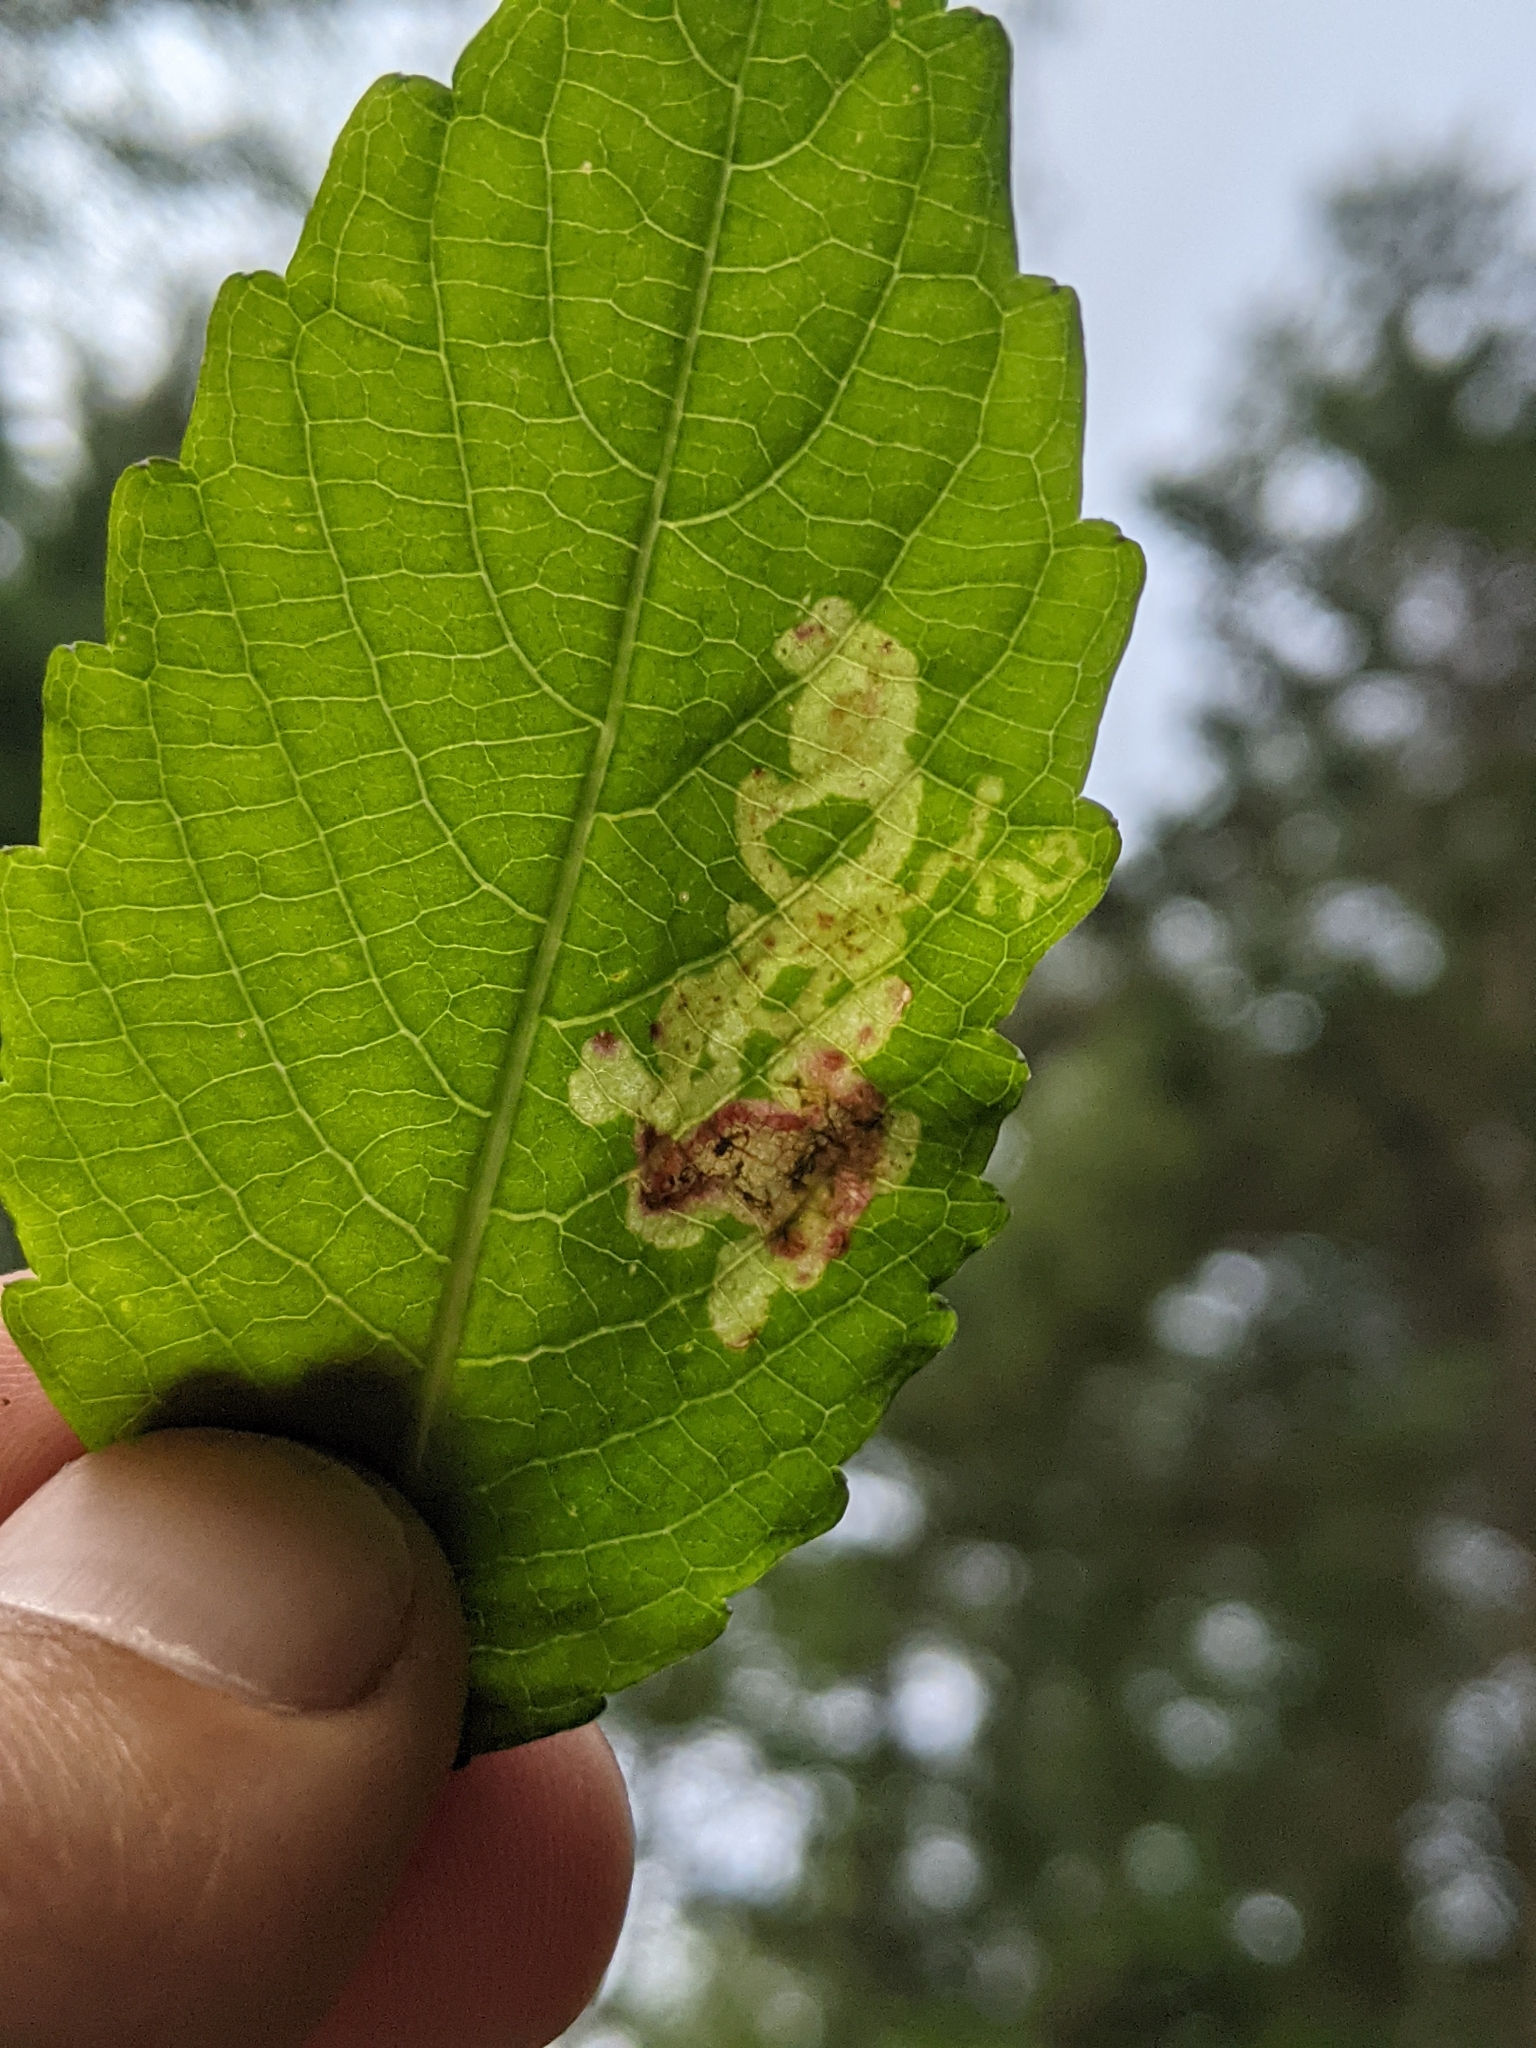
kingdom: Animalia
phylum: Arthropoda
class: Insecta
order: Diptera
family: Agromyzidae
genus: Phytoliriomyza
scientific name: Phytoliriomyza melampyga
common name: Jewelweed leaf-miner fly
